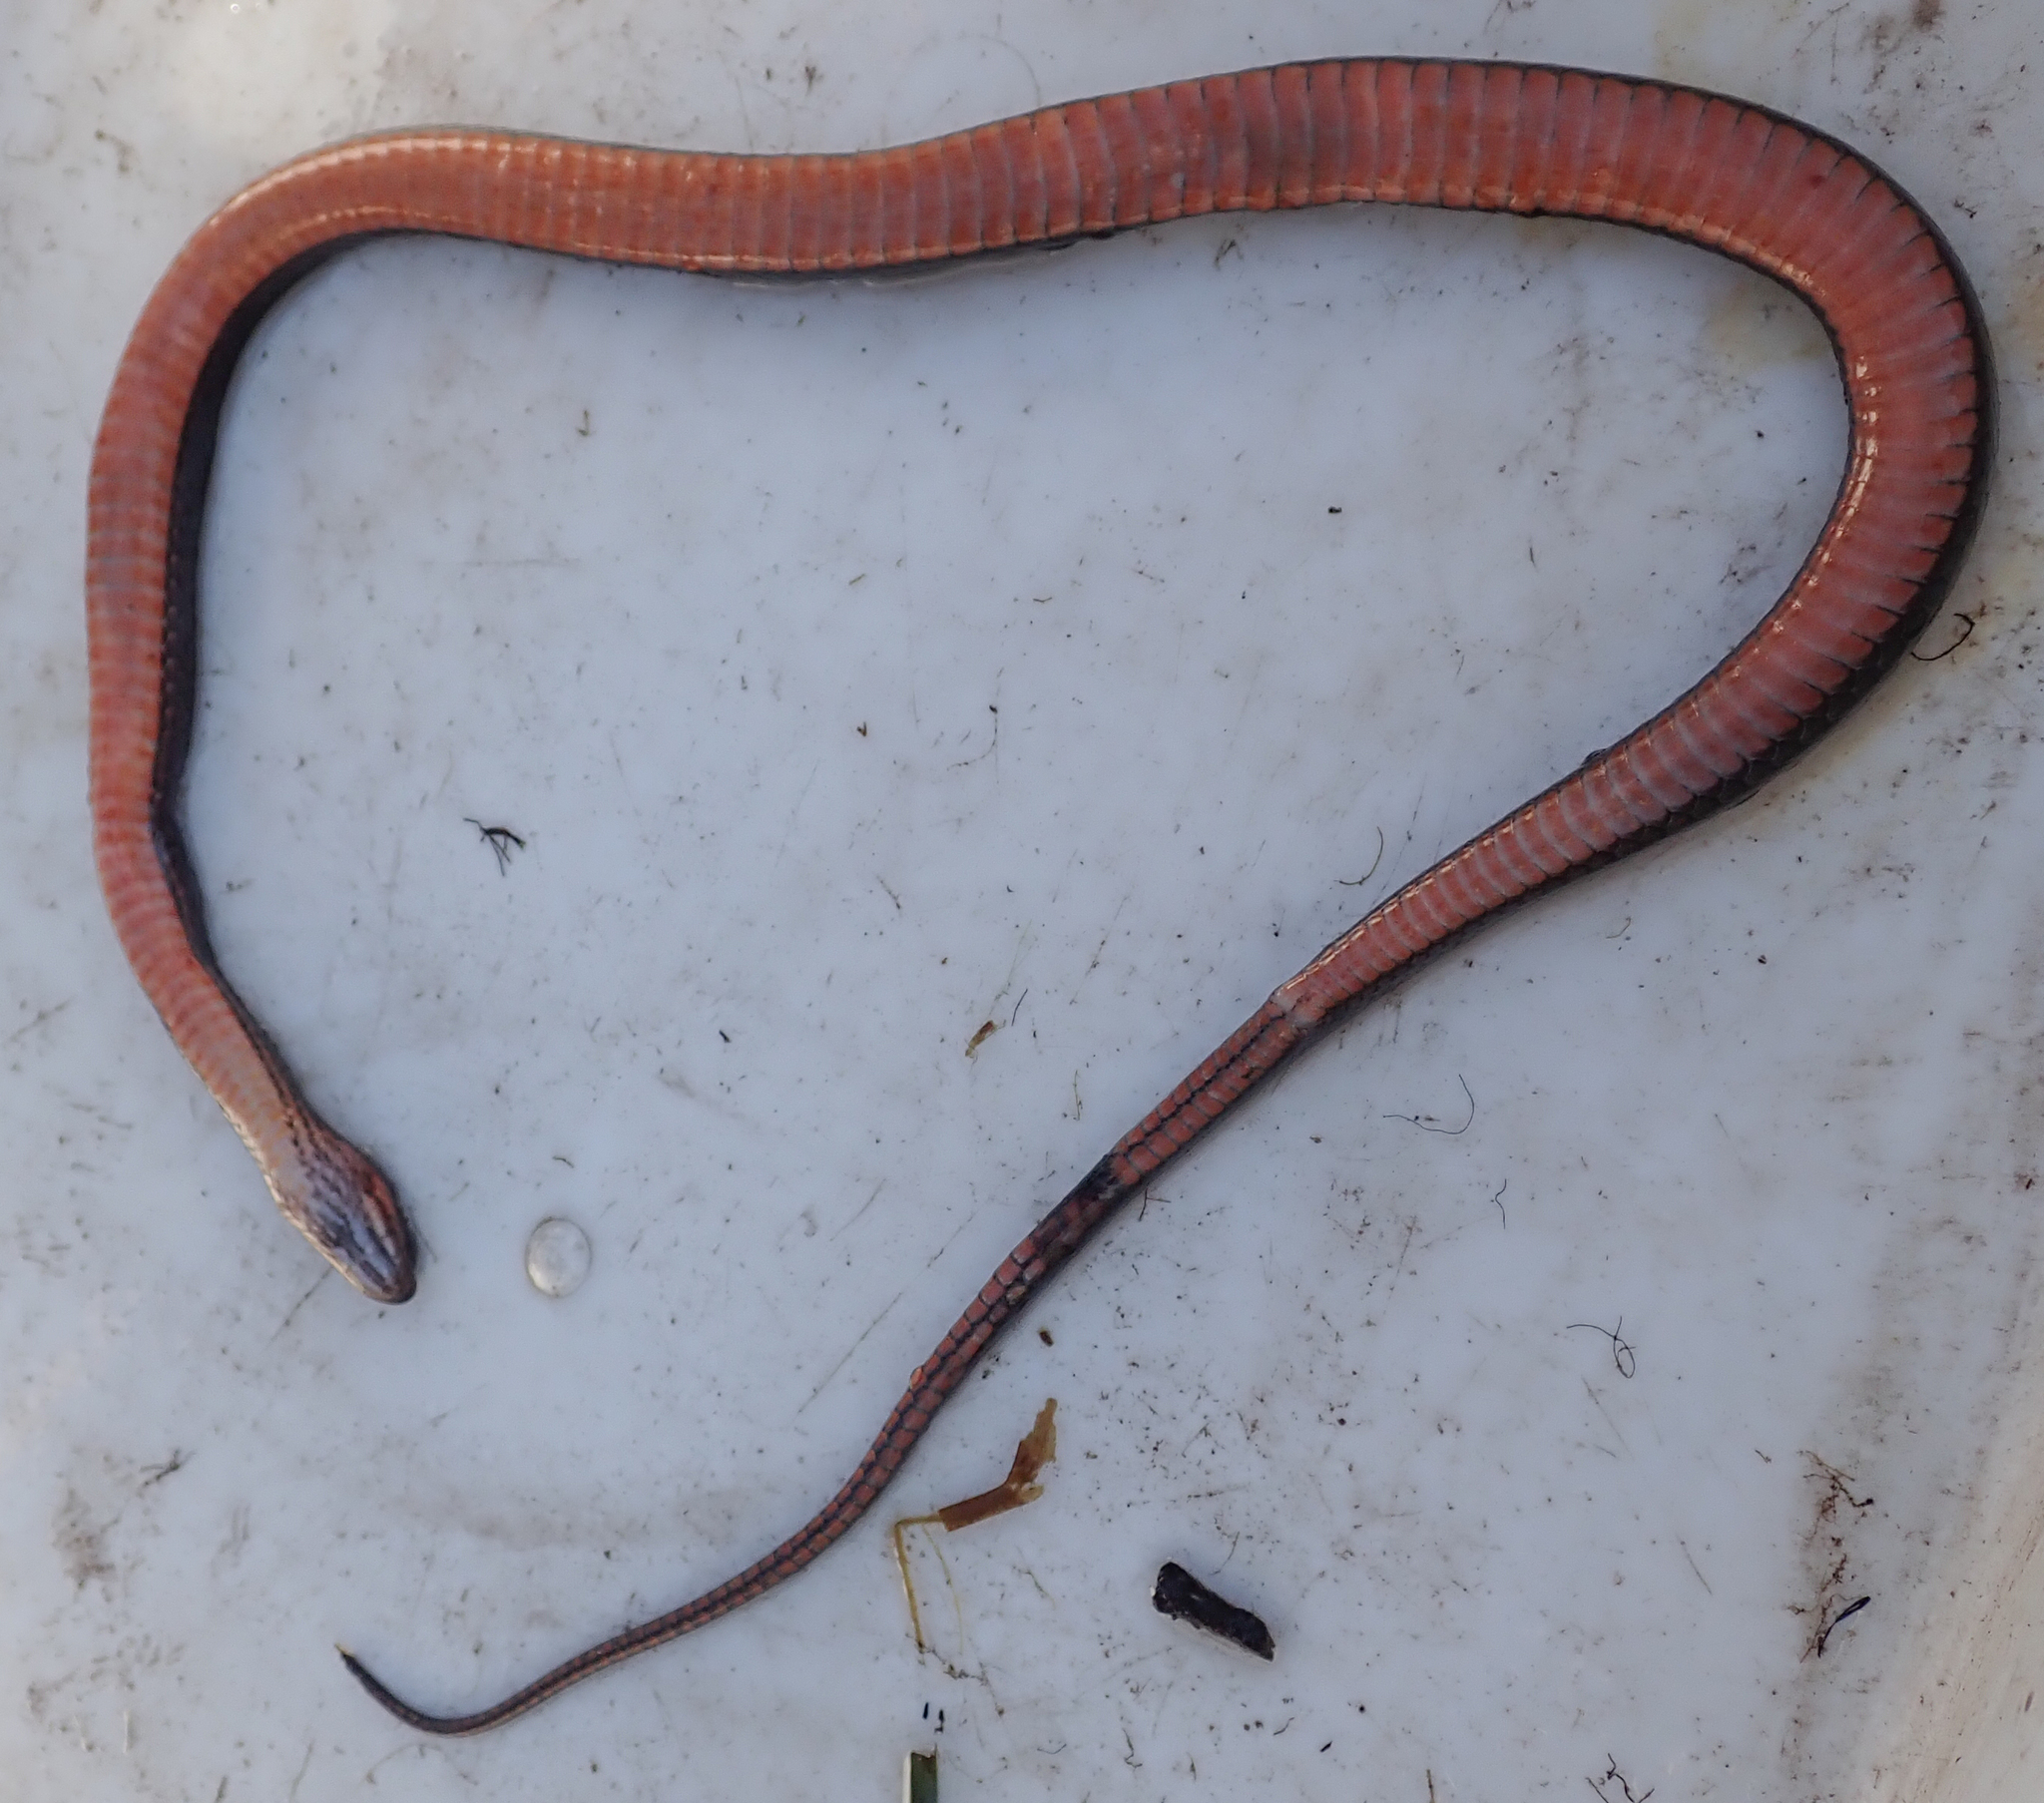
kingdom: Animalia
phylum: Chordata
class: Squamata
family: Colubridae
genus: Limnophis
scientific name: Limnophis bangweolicus
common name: Bangweulu water snake
